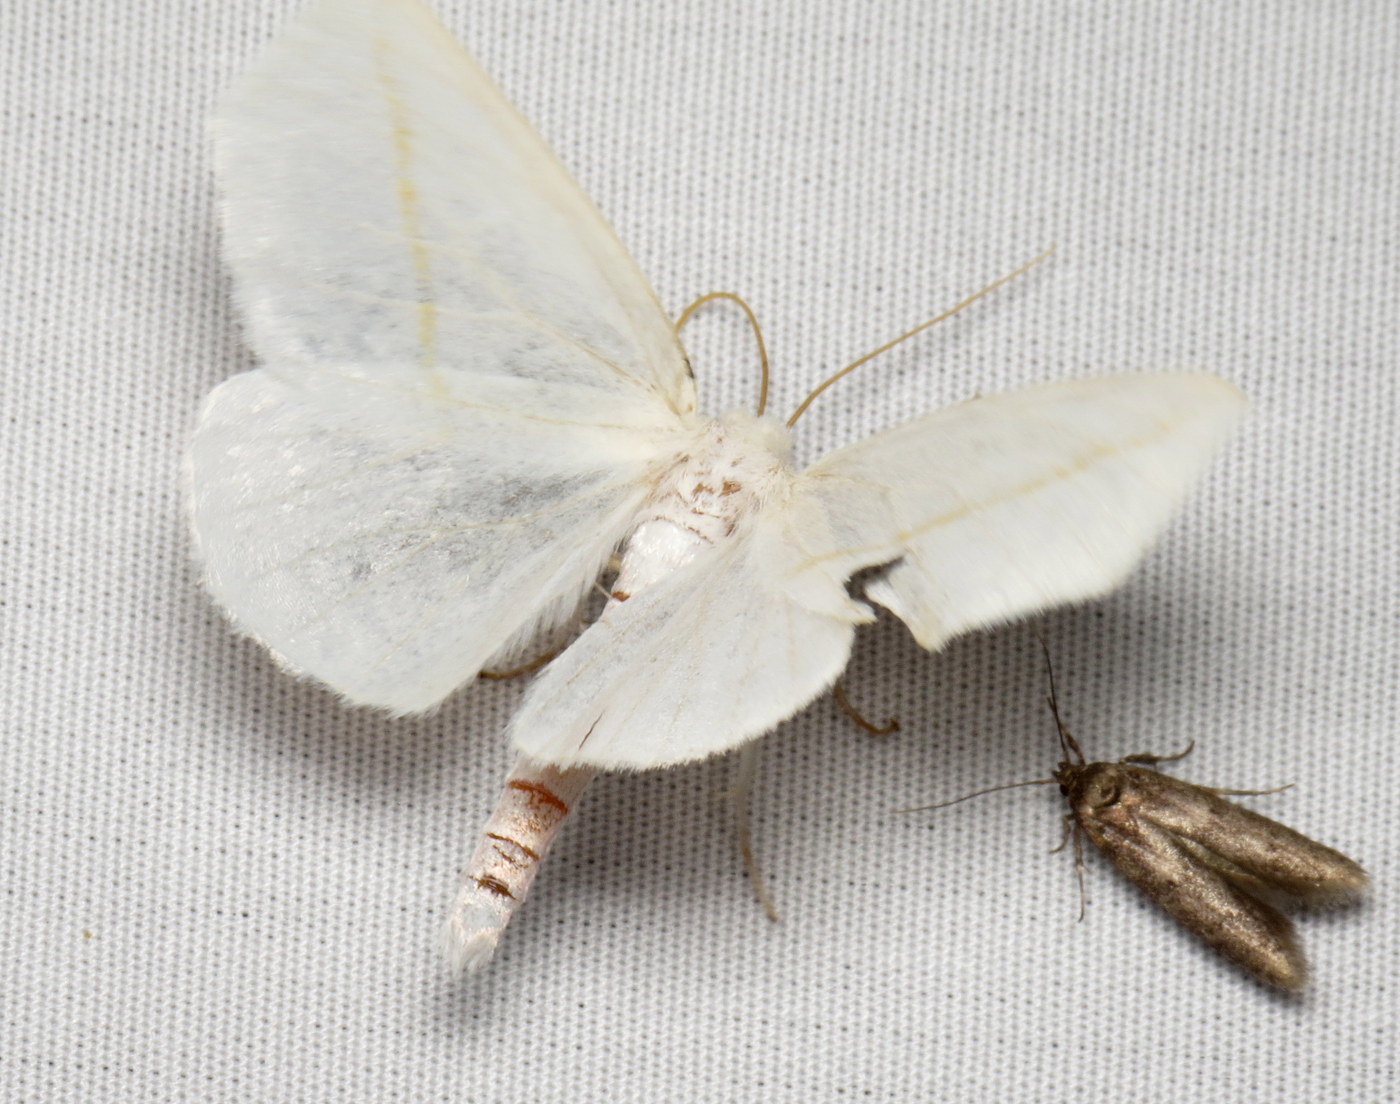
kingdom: Animalia
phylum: Arthropoda
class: Insecta
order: Lepidoptera
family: Geometridae
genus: Tetracis
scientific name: Tetracis cachexiata
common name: White slant-line
